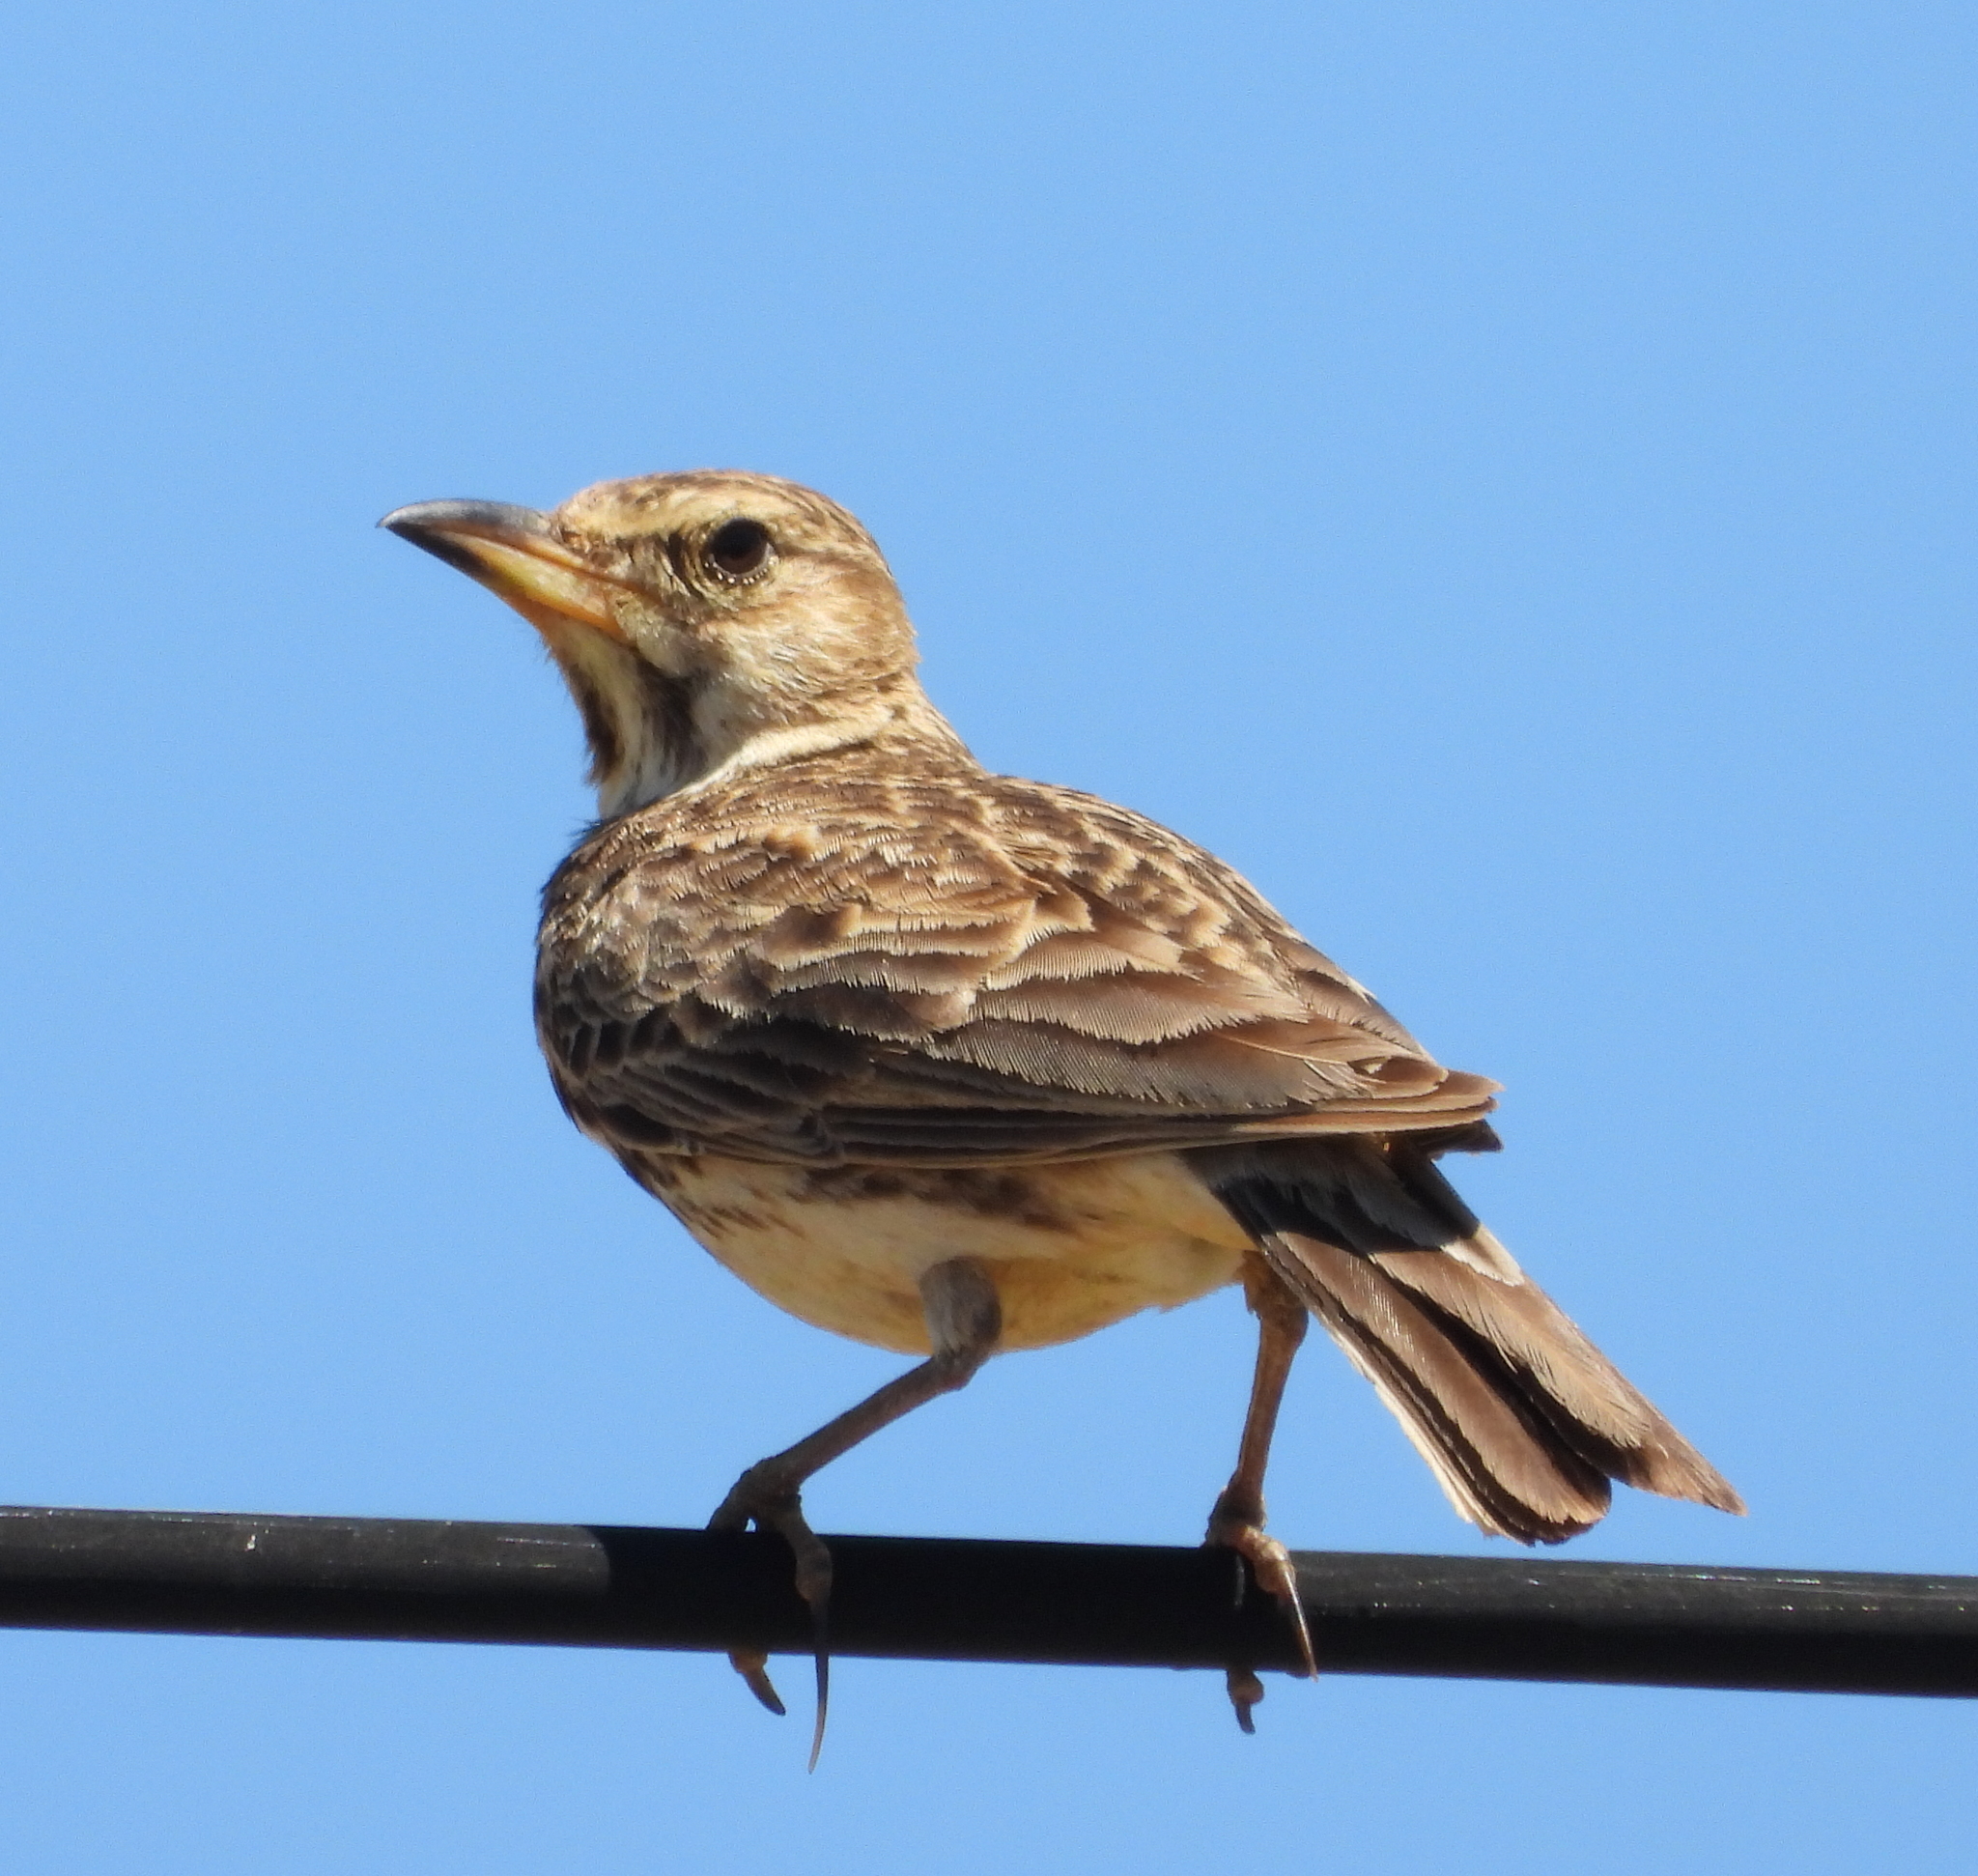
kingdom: Animalia
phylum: Chordata
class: Aves
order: Passeriformes
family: Alaudidae
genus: Galerida
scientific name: Galerida magnirostris
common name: Large-billed lark
